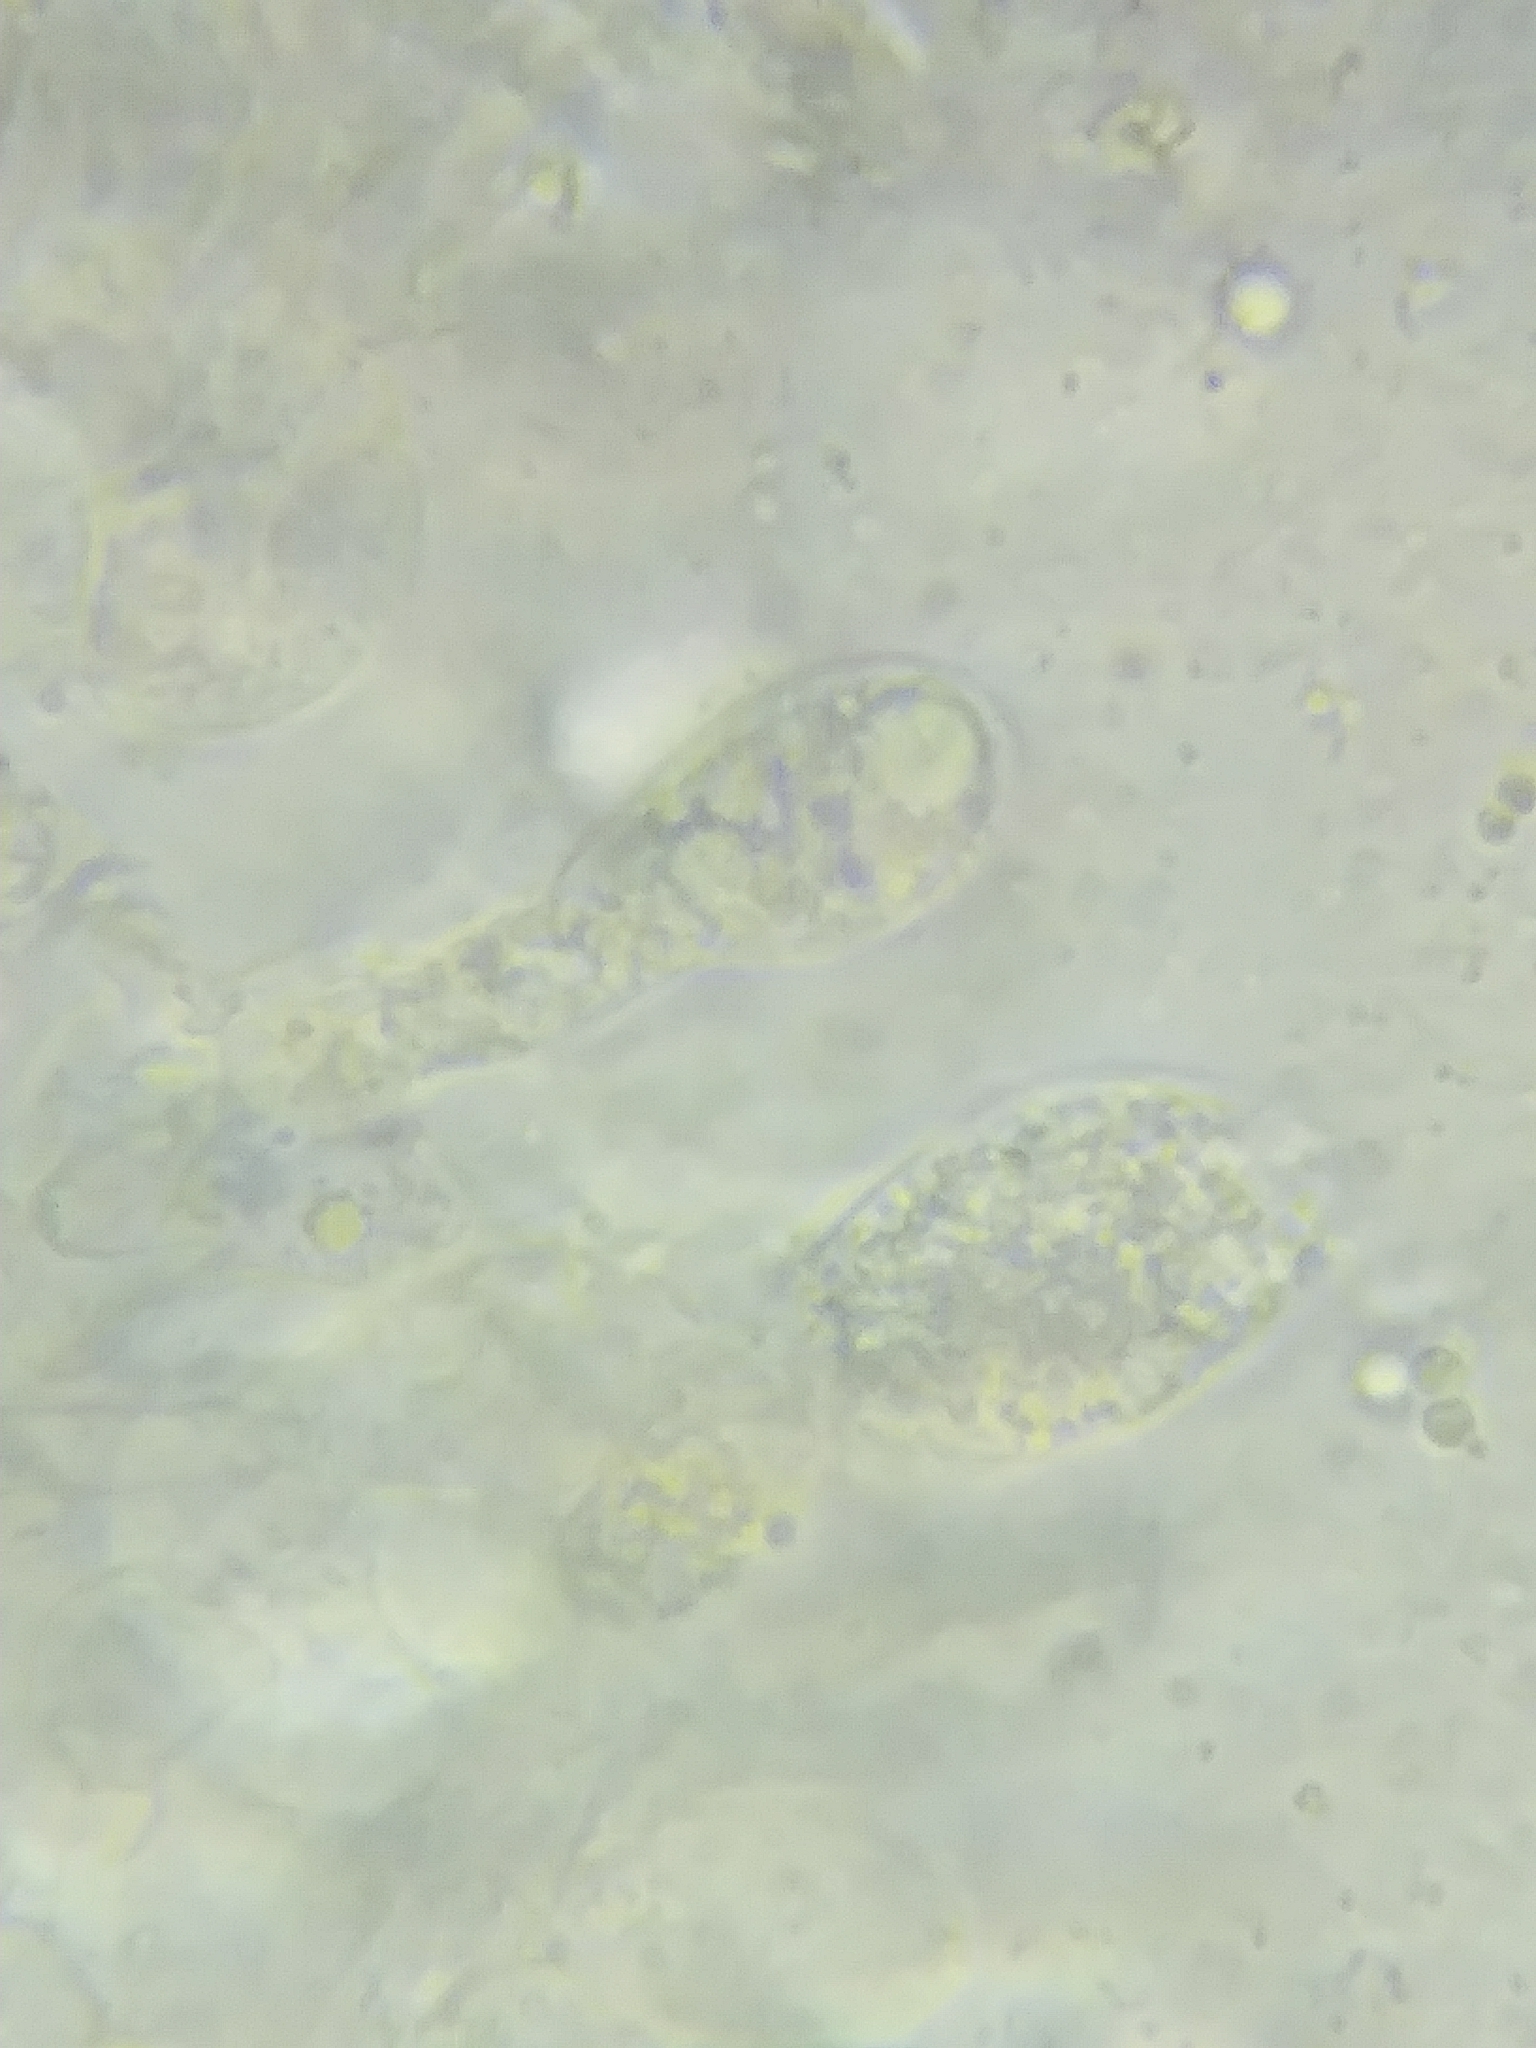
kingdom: Fungi
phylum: Basidiomycota
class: Agaricomycetes
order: Agaricales
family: Amanitaceae
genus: Amanita
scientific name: Amanita onusta
